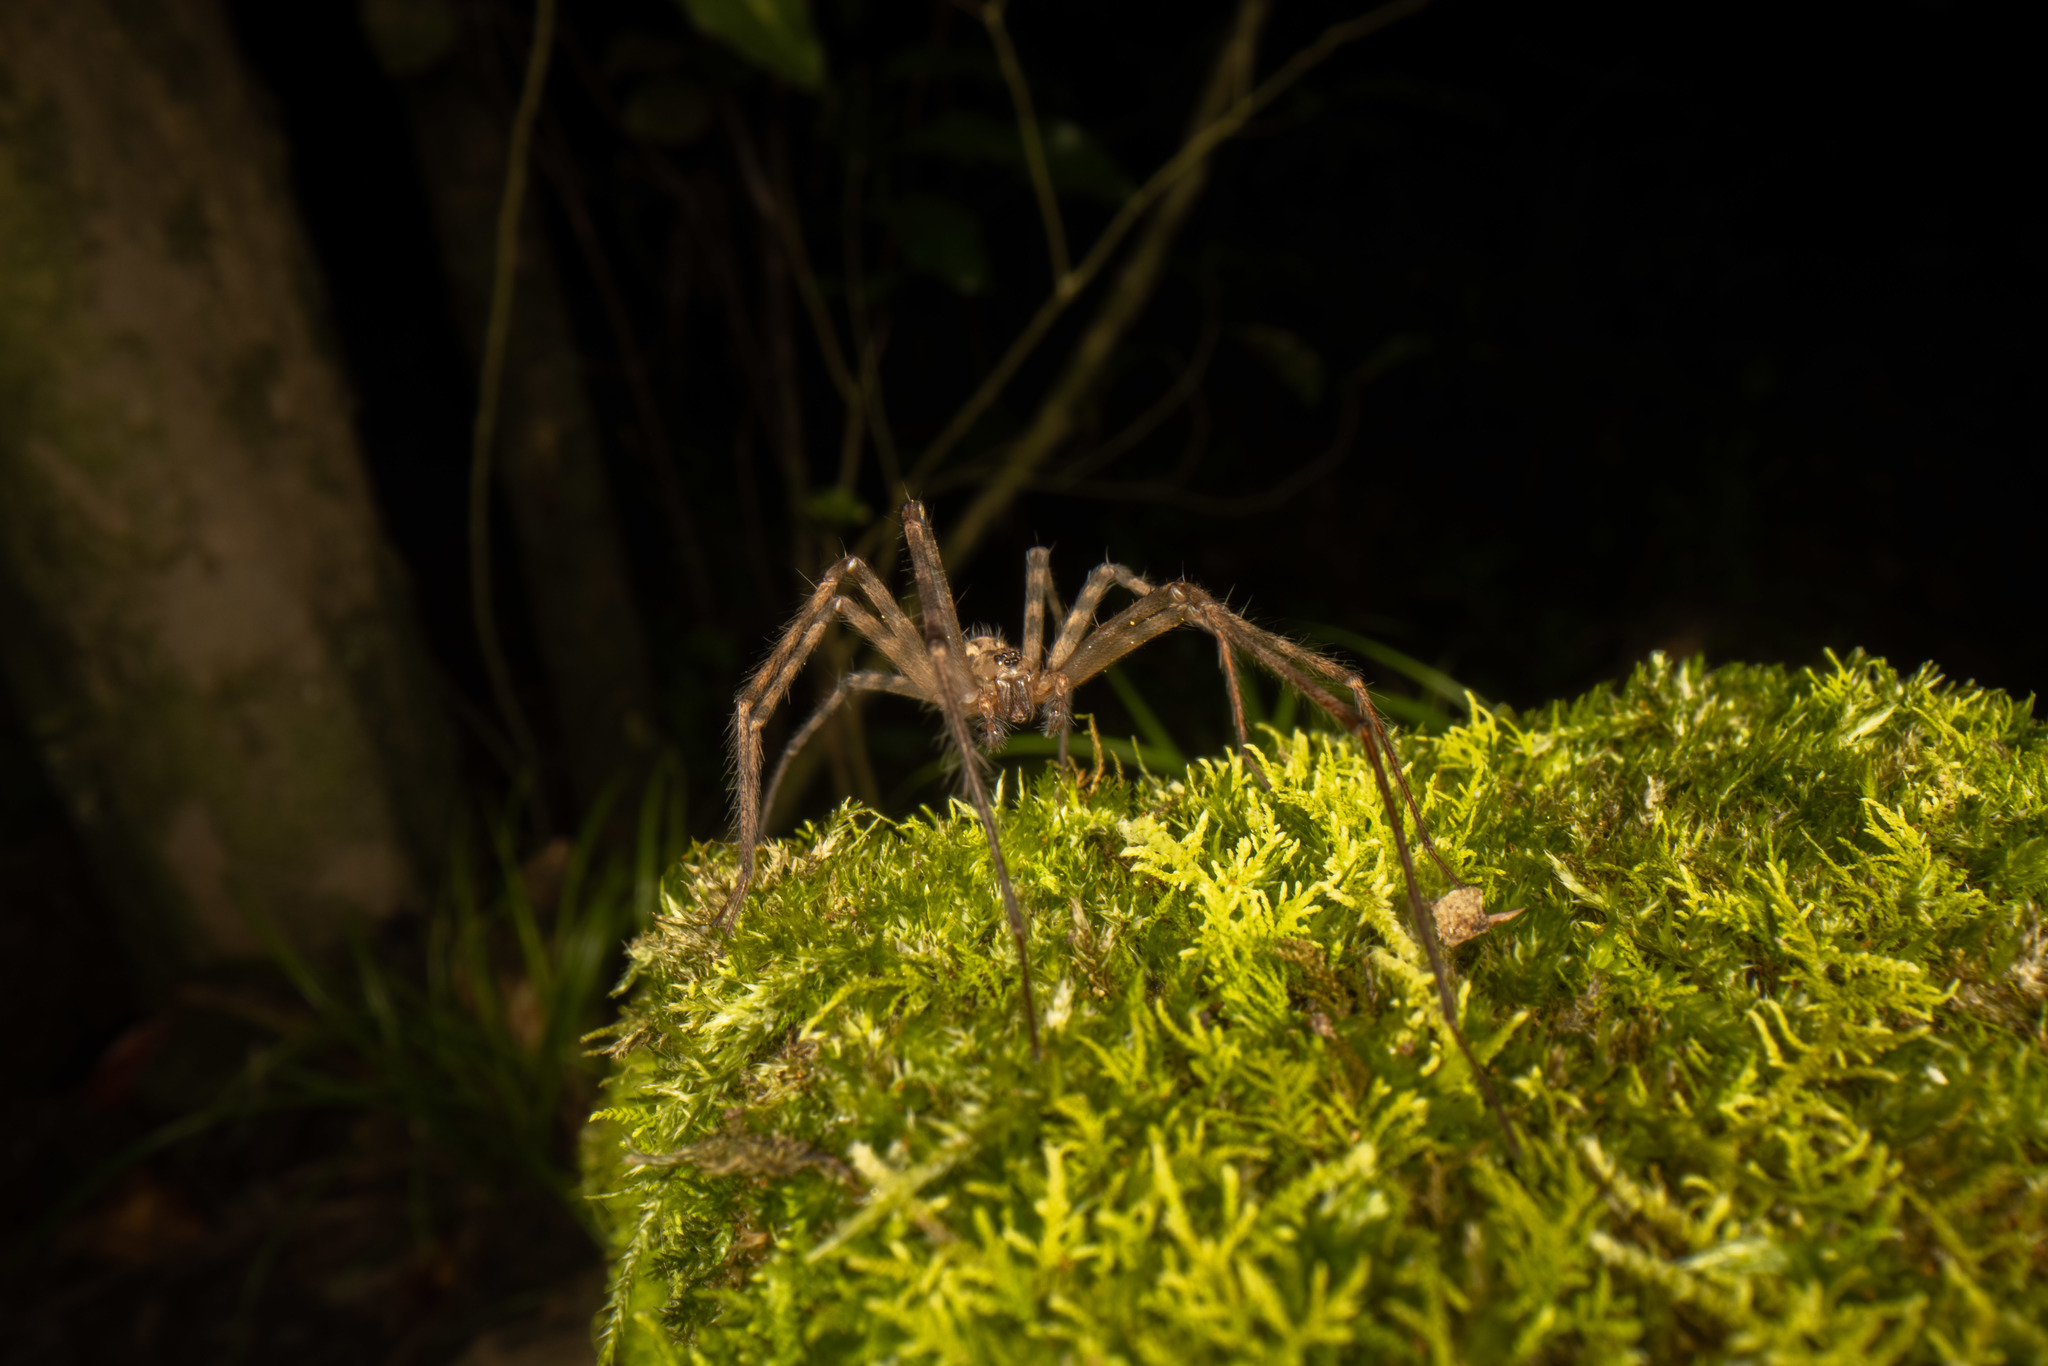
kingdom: Animalia
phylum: Arthropoda
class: Arachnida
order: Araneae
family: Stiphidiidae
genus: Stiphidion
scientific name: Stiphidion facetum
